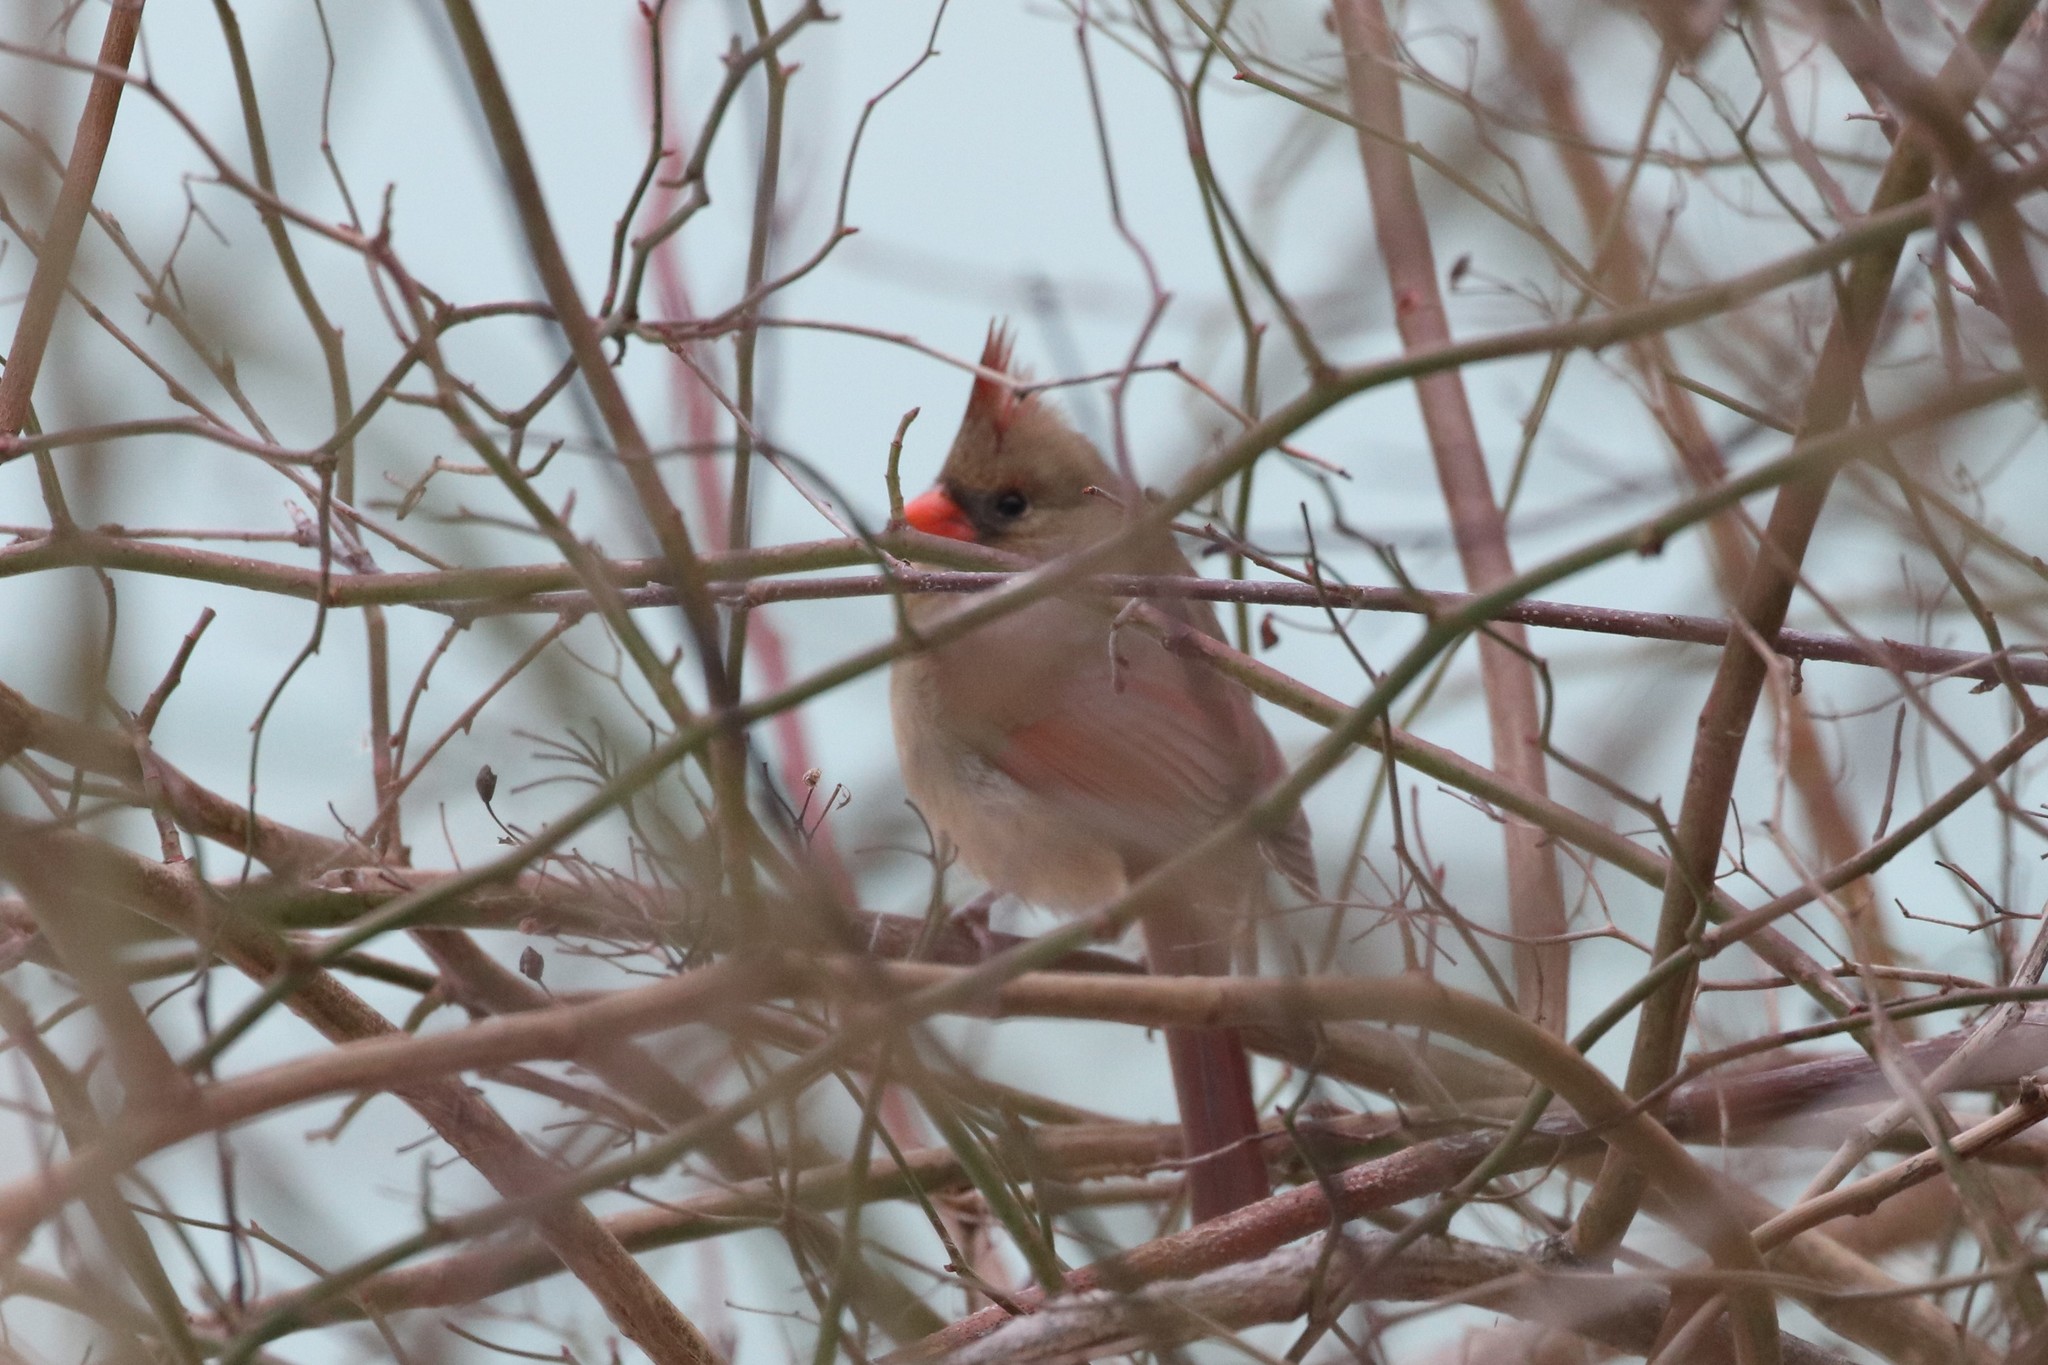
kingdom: Animalia
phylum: Chordata
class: Aves
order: Passeriformes
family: Cardinalidae
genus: Cardinalis
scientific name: Cardinalis cardinalis
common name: Northern cardinal
